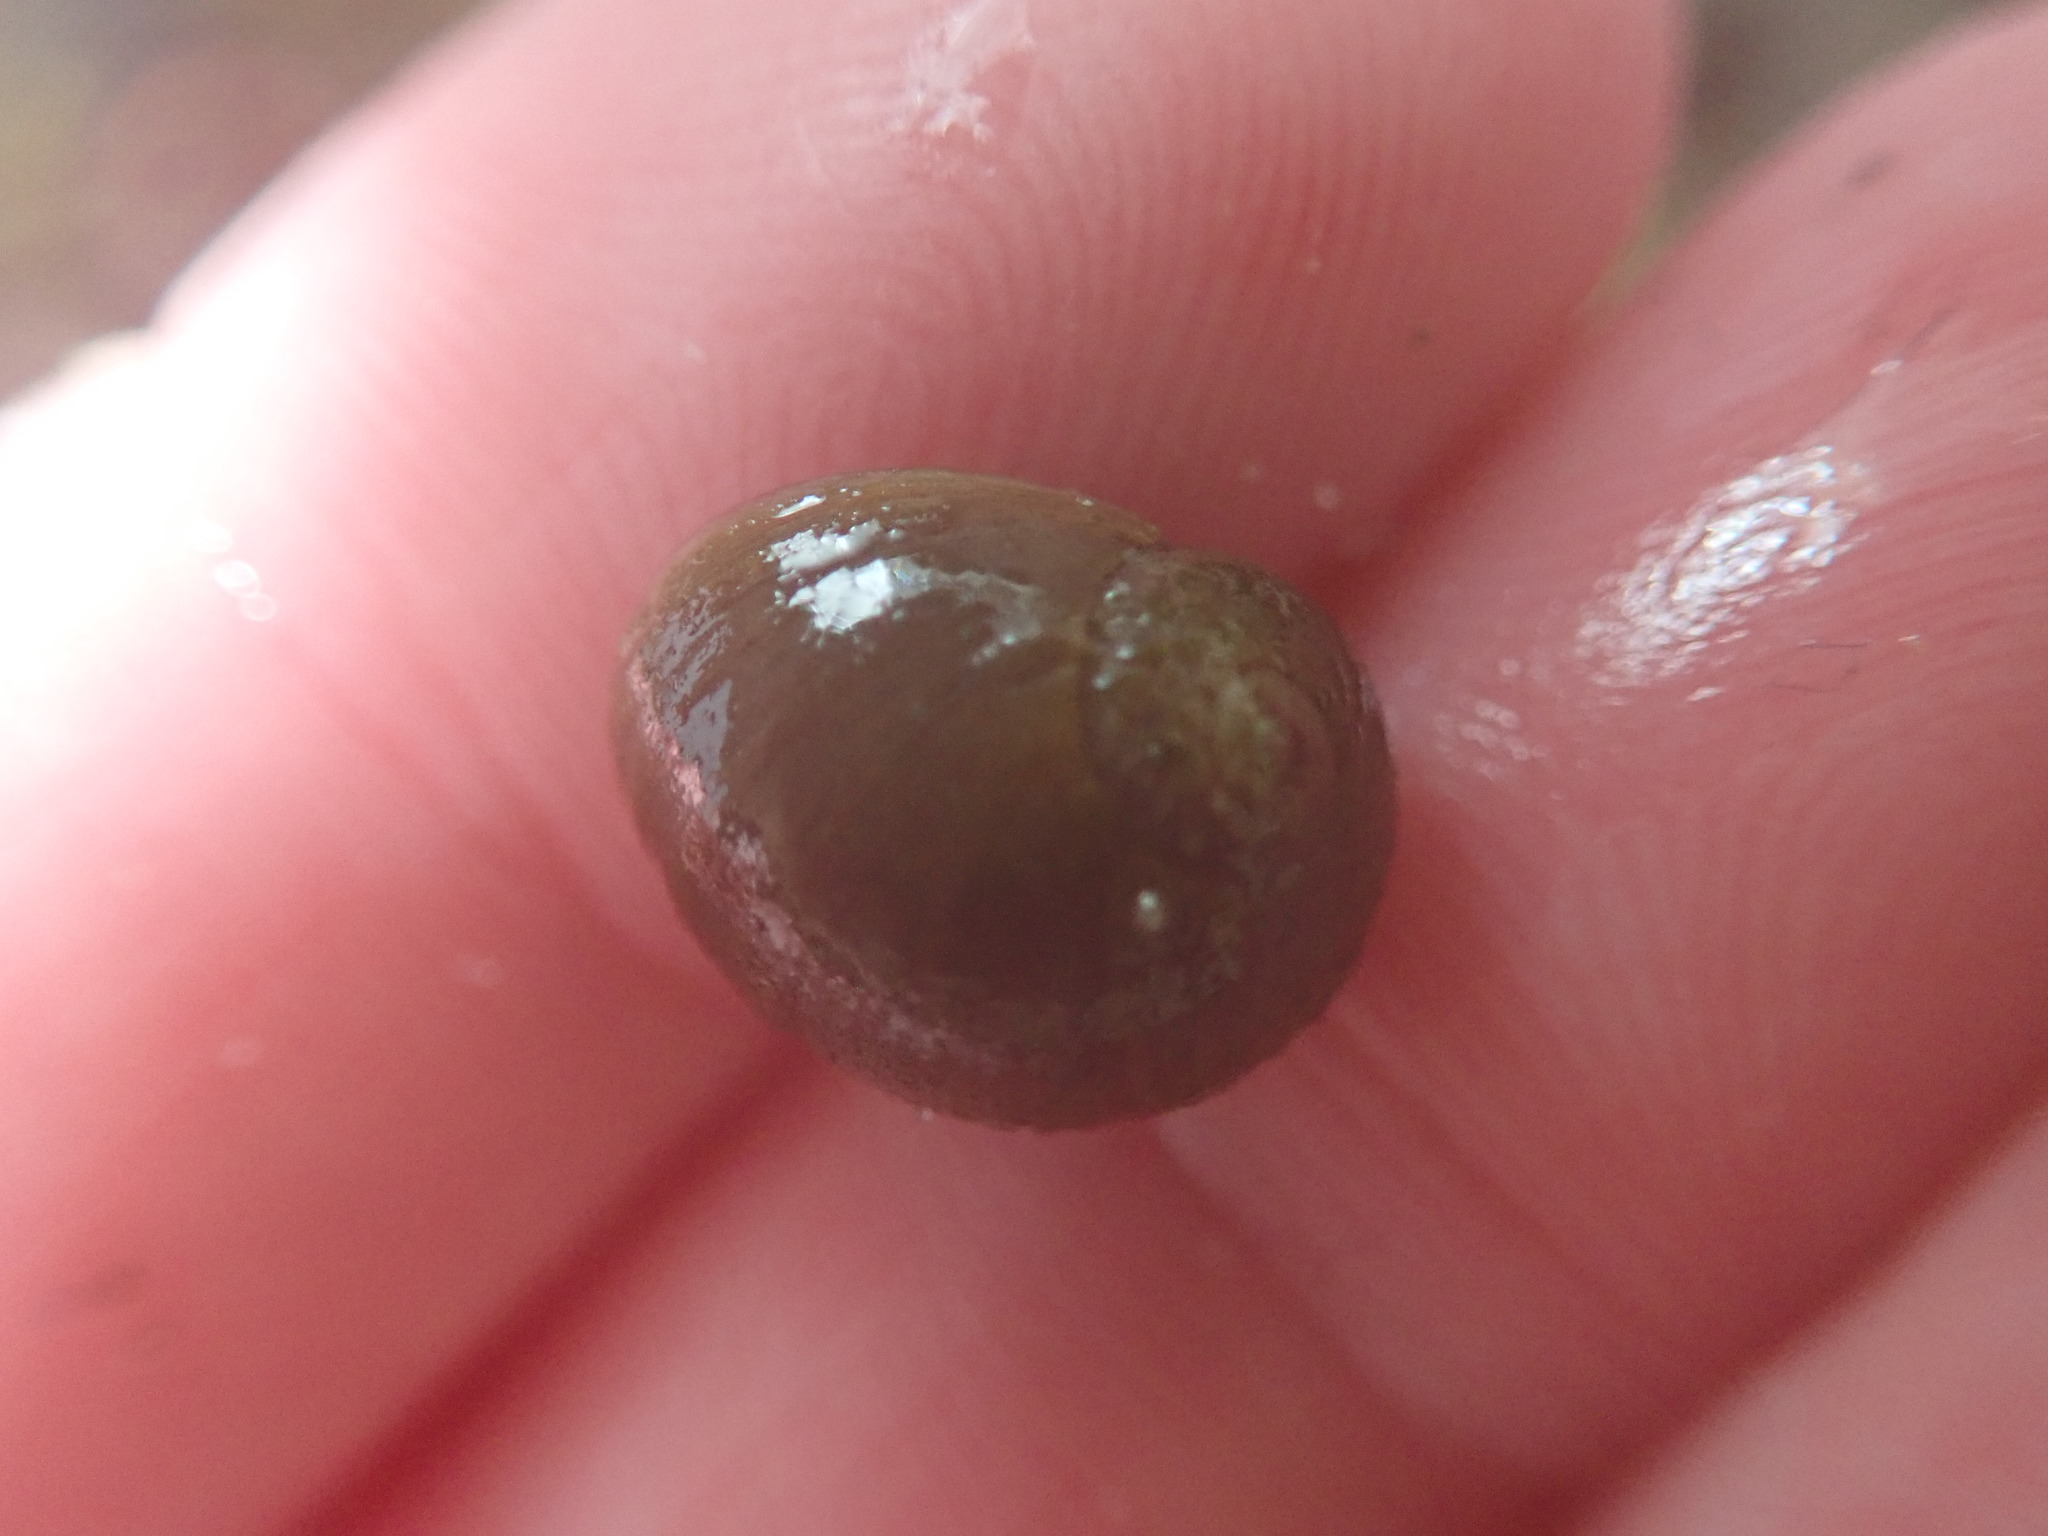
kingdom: Animalia
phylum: Mollusca
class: Gastropoda
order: Littorinimorpha
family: Littorinidae
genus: Littorina
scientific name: Littorina obtusata
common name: Flat periwinkle
